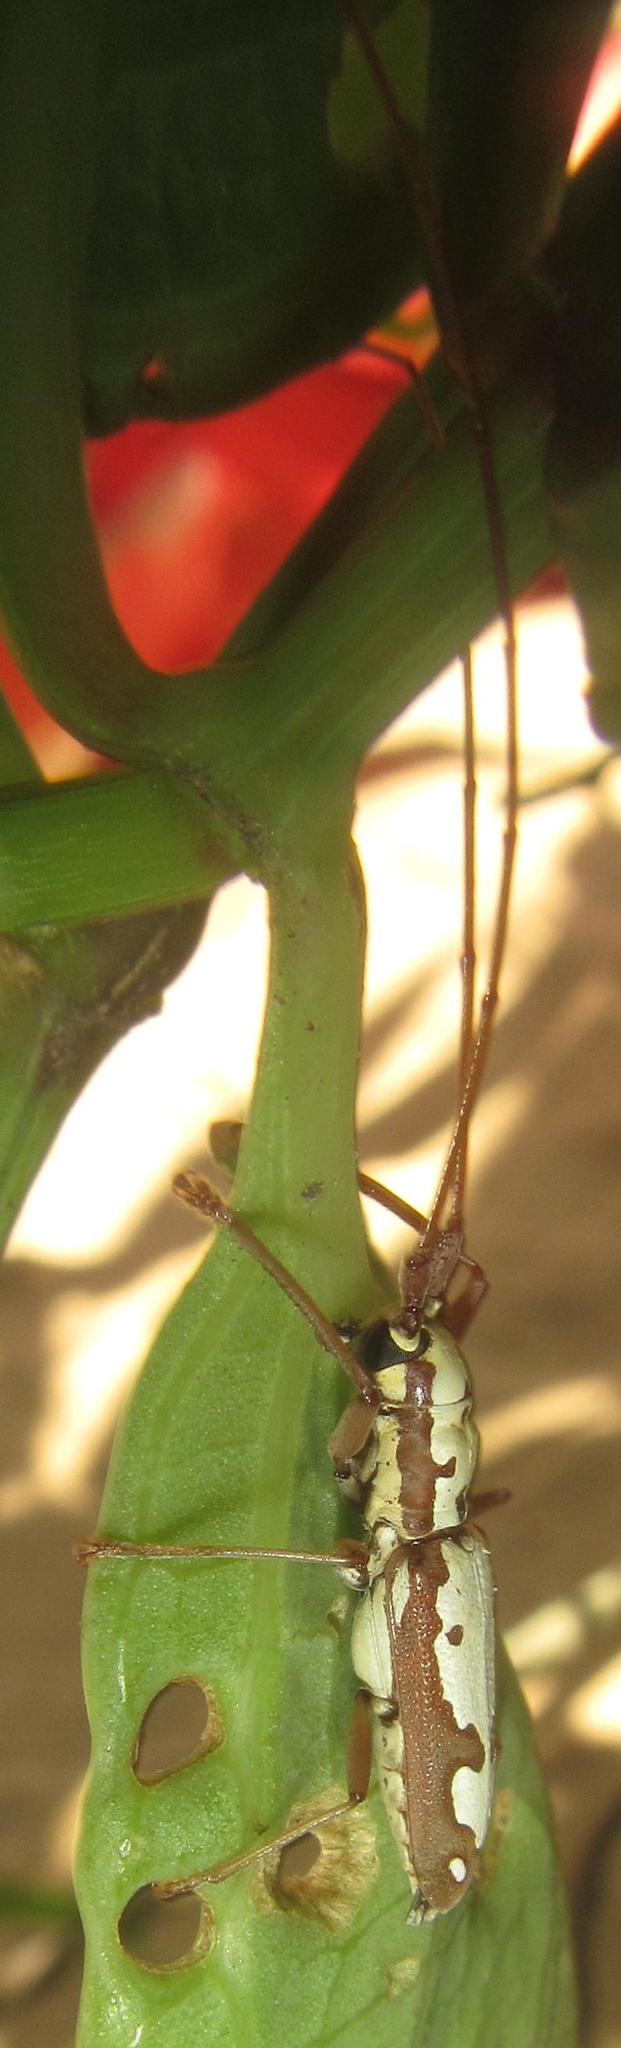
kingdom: Animalia
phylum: Arthropoda
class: Insecta
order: Coleoptera
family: Cerambycidae
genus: Olenecamptus
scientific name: Olenecamptus albidus
